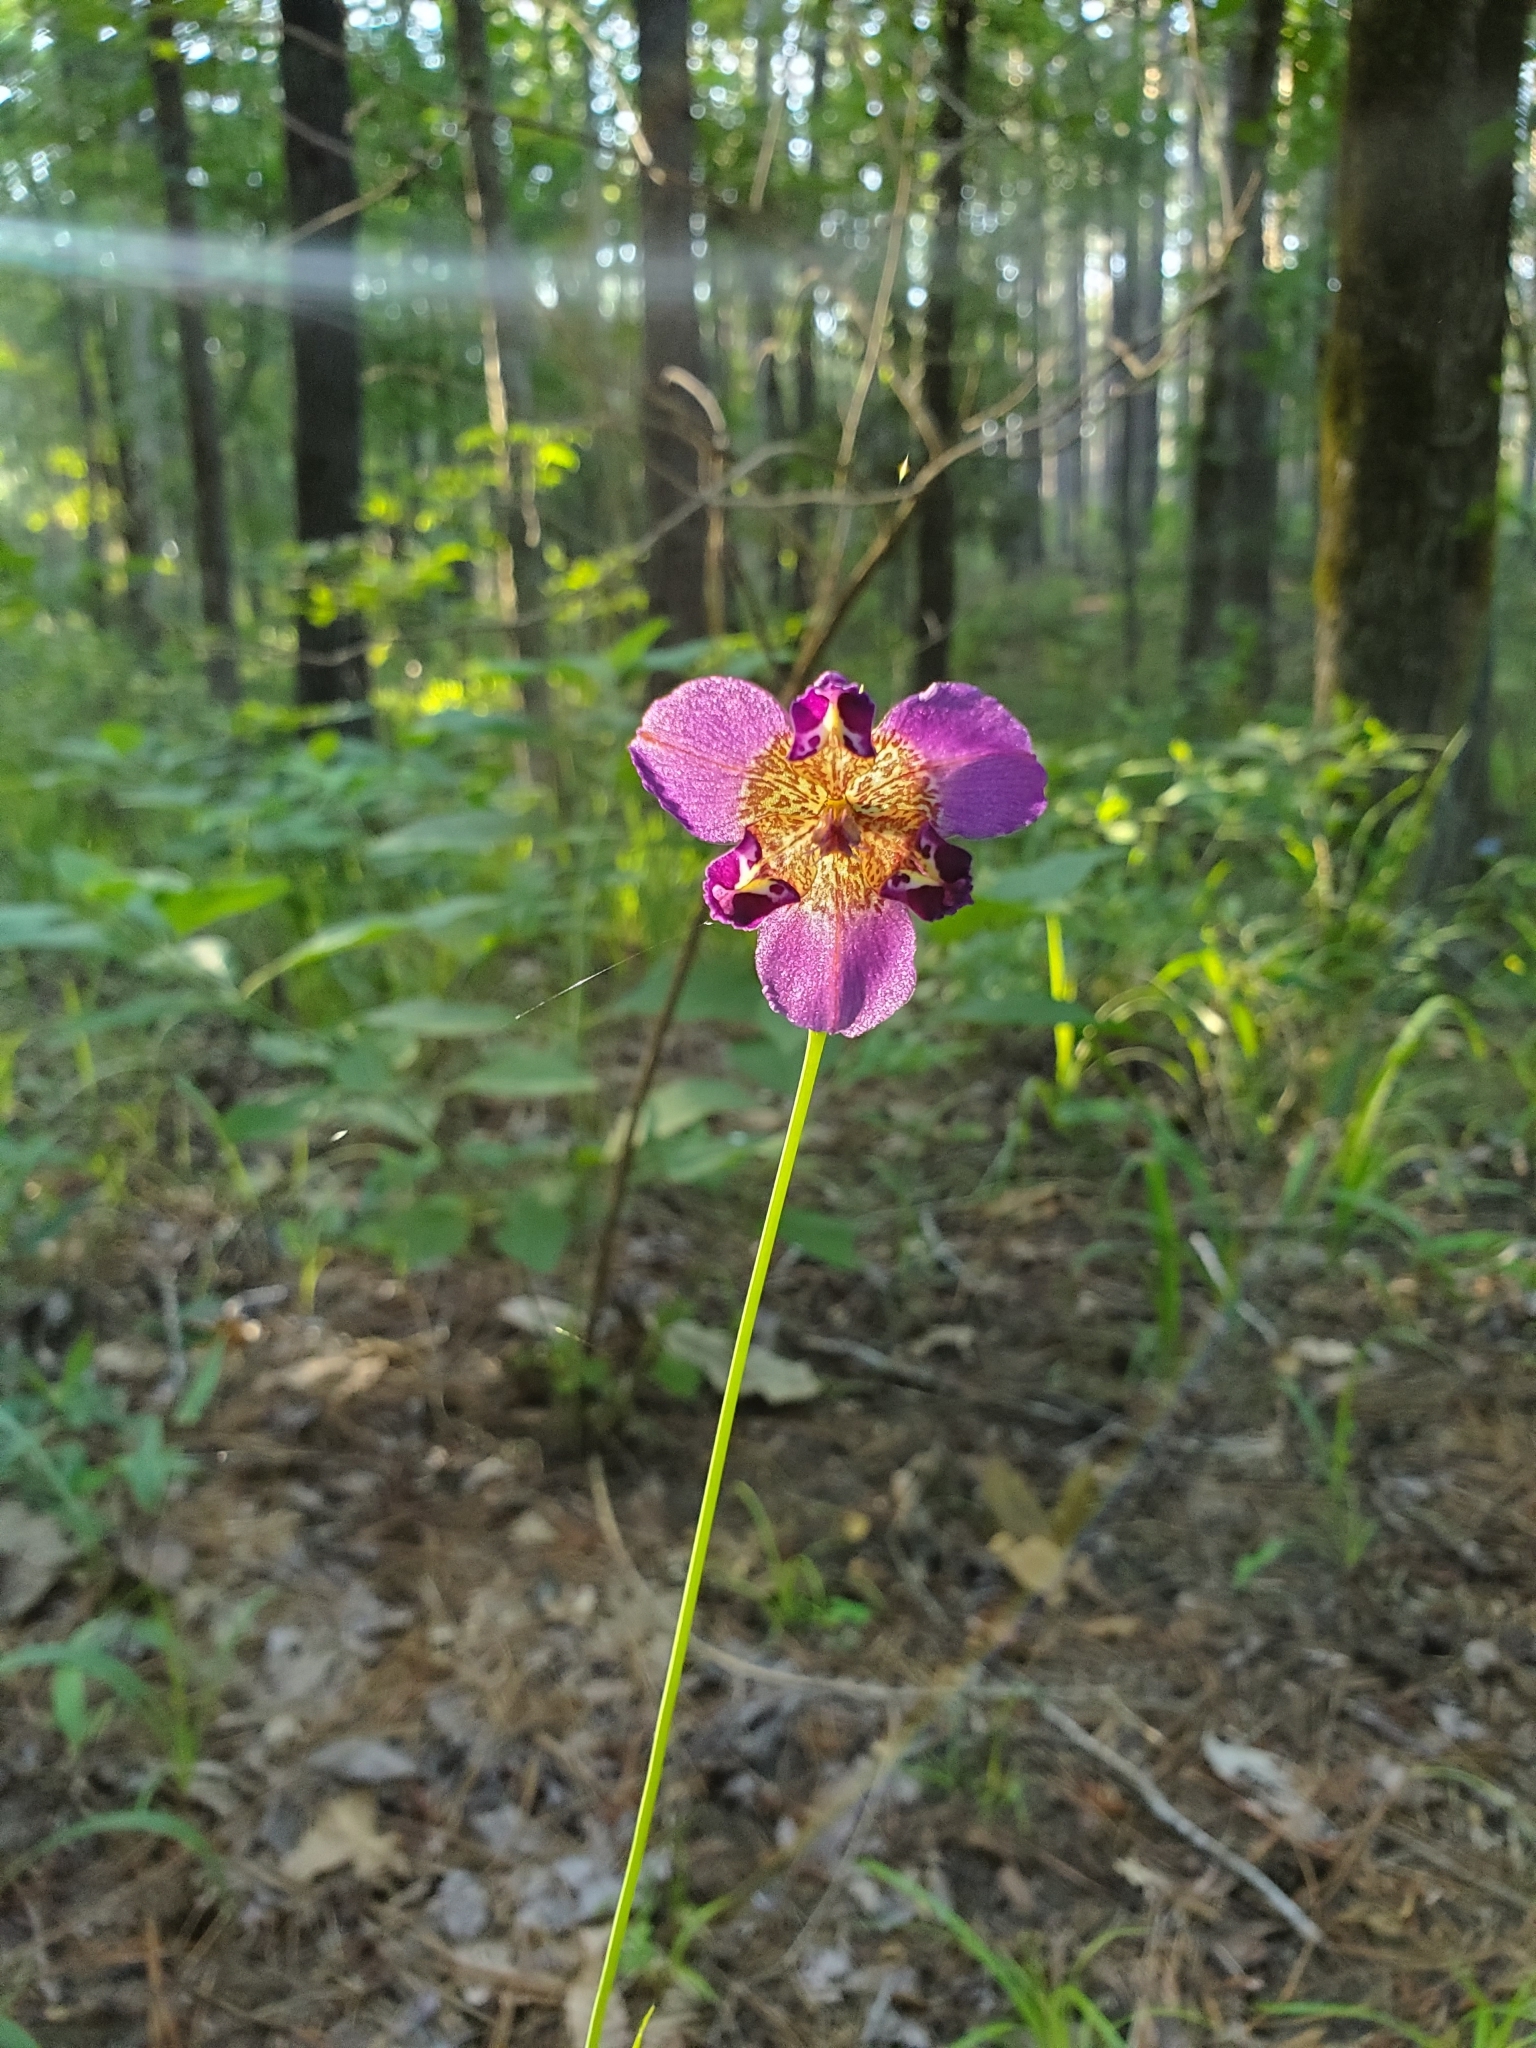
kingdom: Plantae
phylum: Tracheophyta
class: Liliopsida
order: Asparagales
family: Iridaceae
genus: Alophia
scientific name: Alophia drummondii
